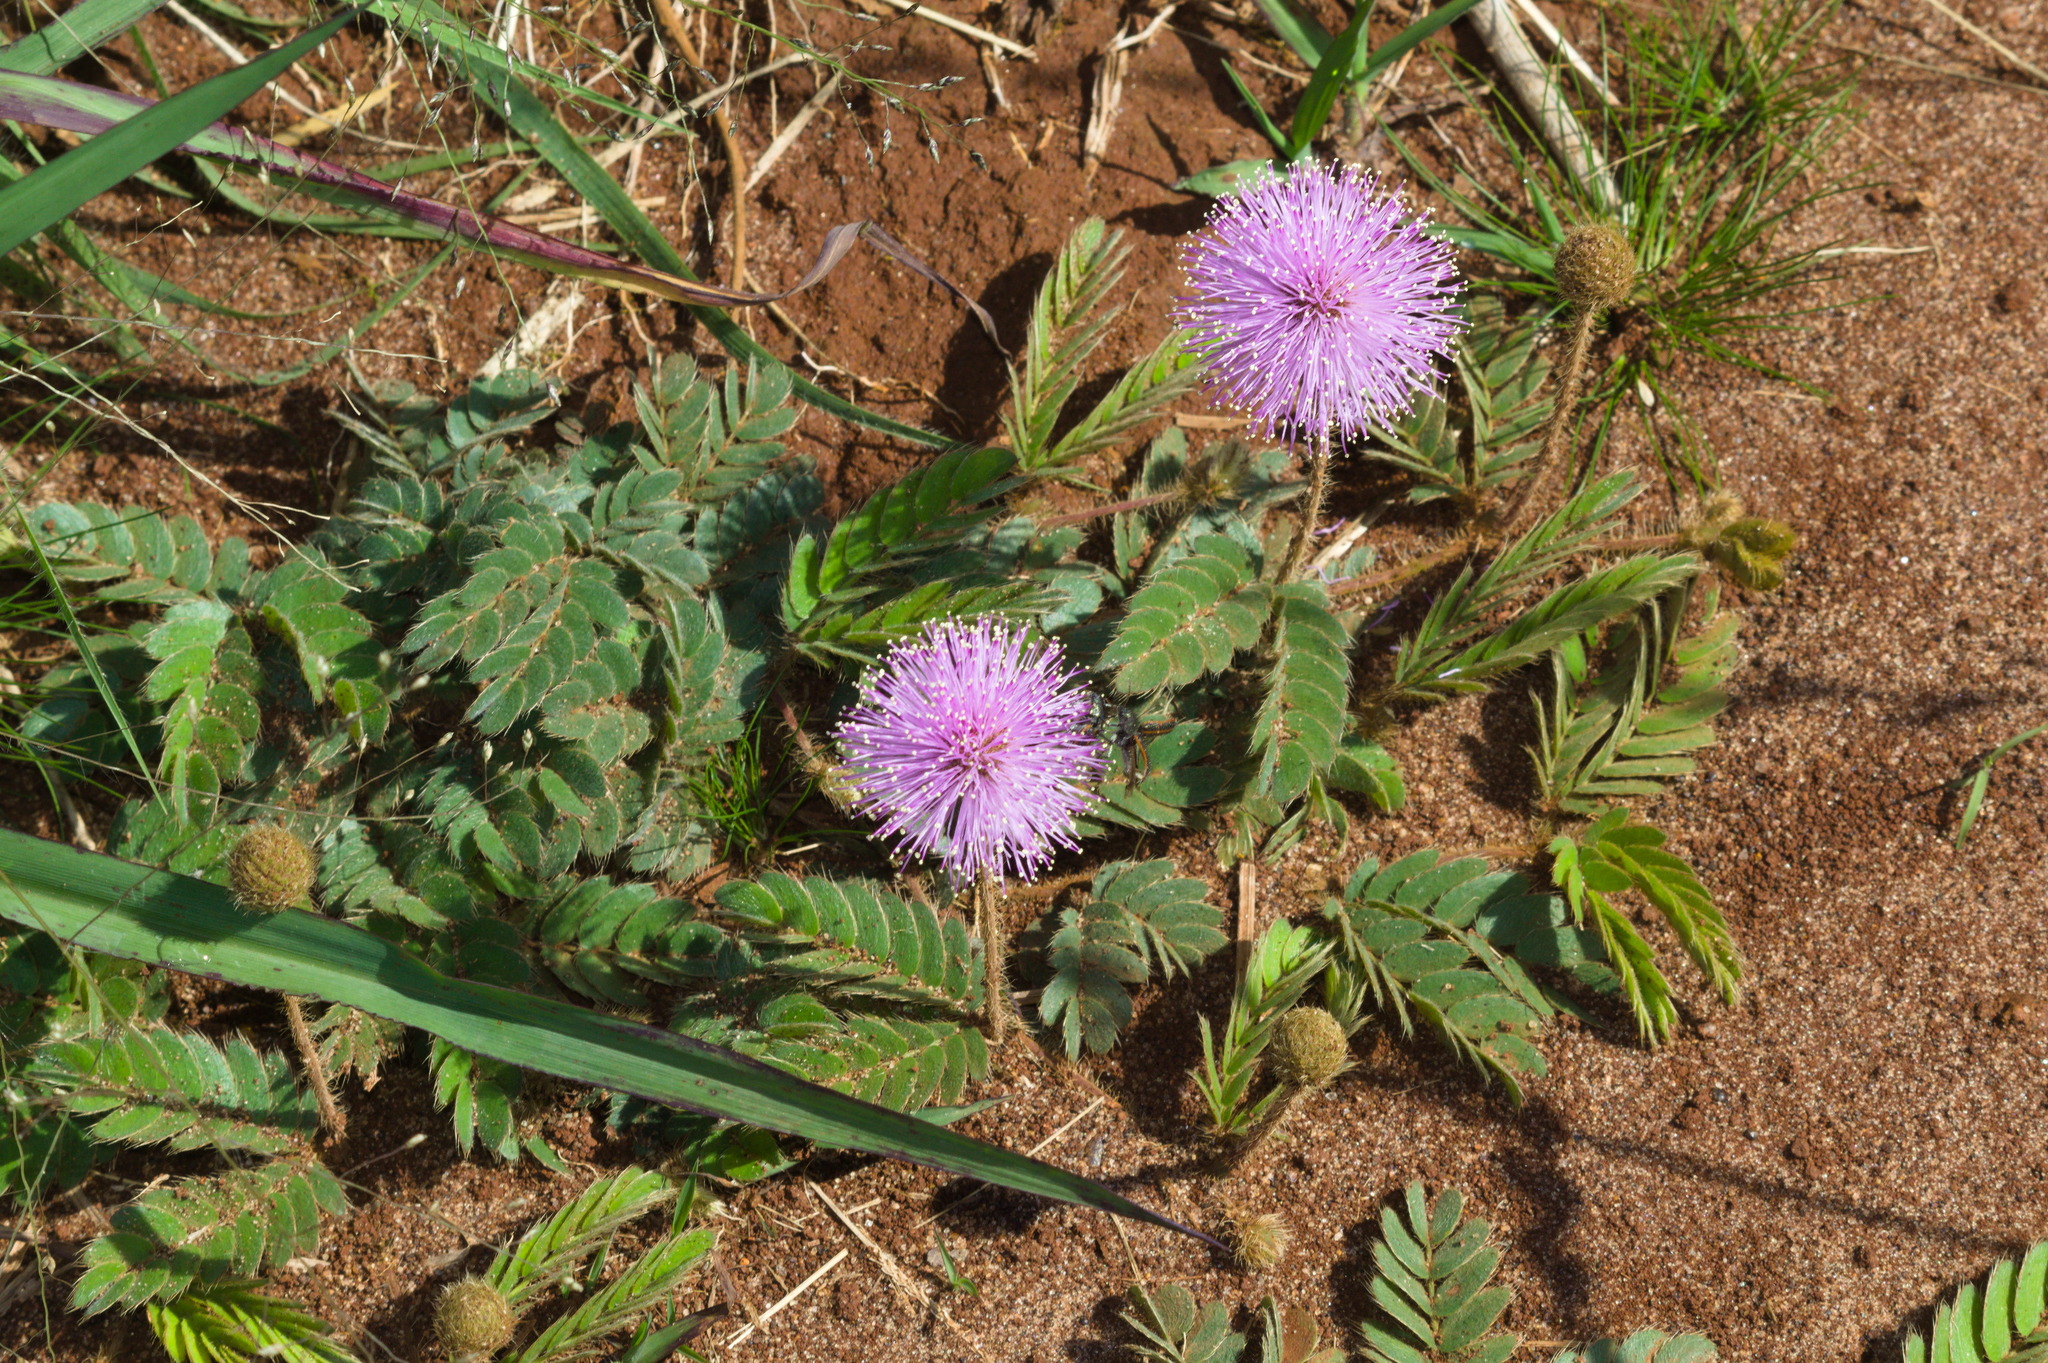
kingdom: Plantae
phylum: Tracheophyta
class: Magnoliopsida
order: Fabales
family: Fabaceae
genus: Mimosa
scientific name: Mimosa pudica
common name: Sensitive plant
